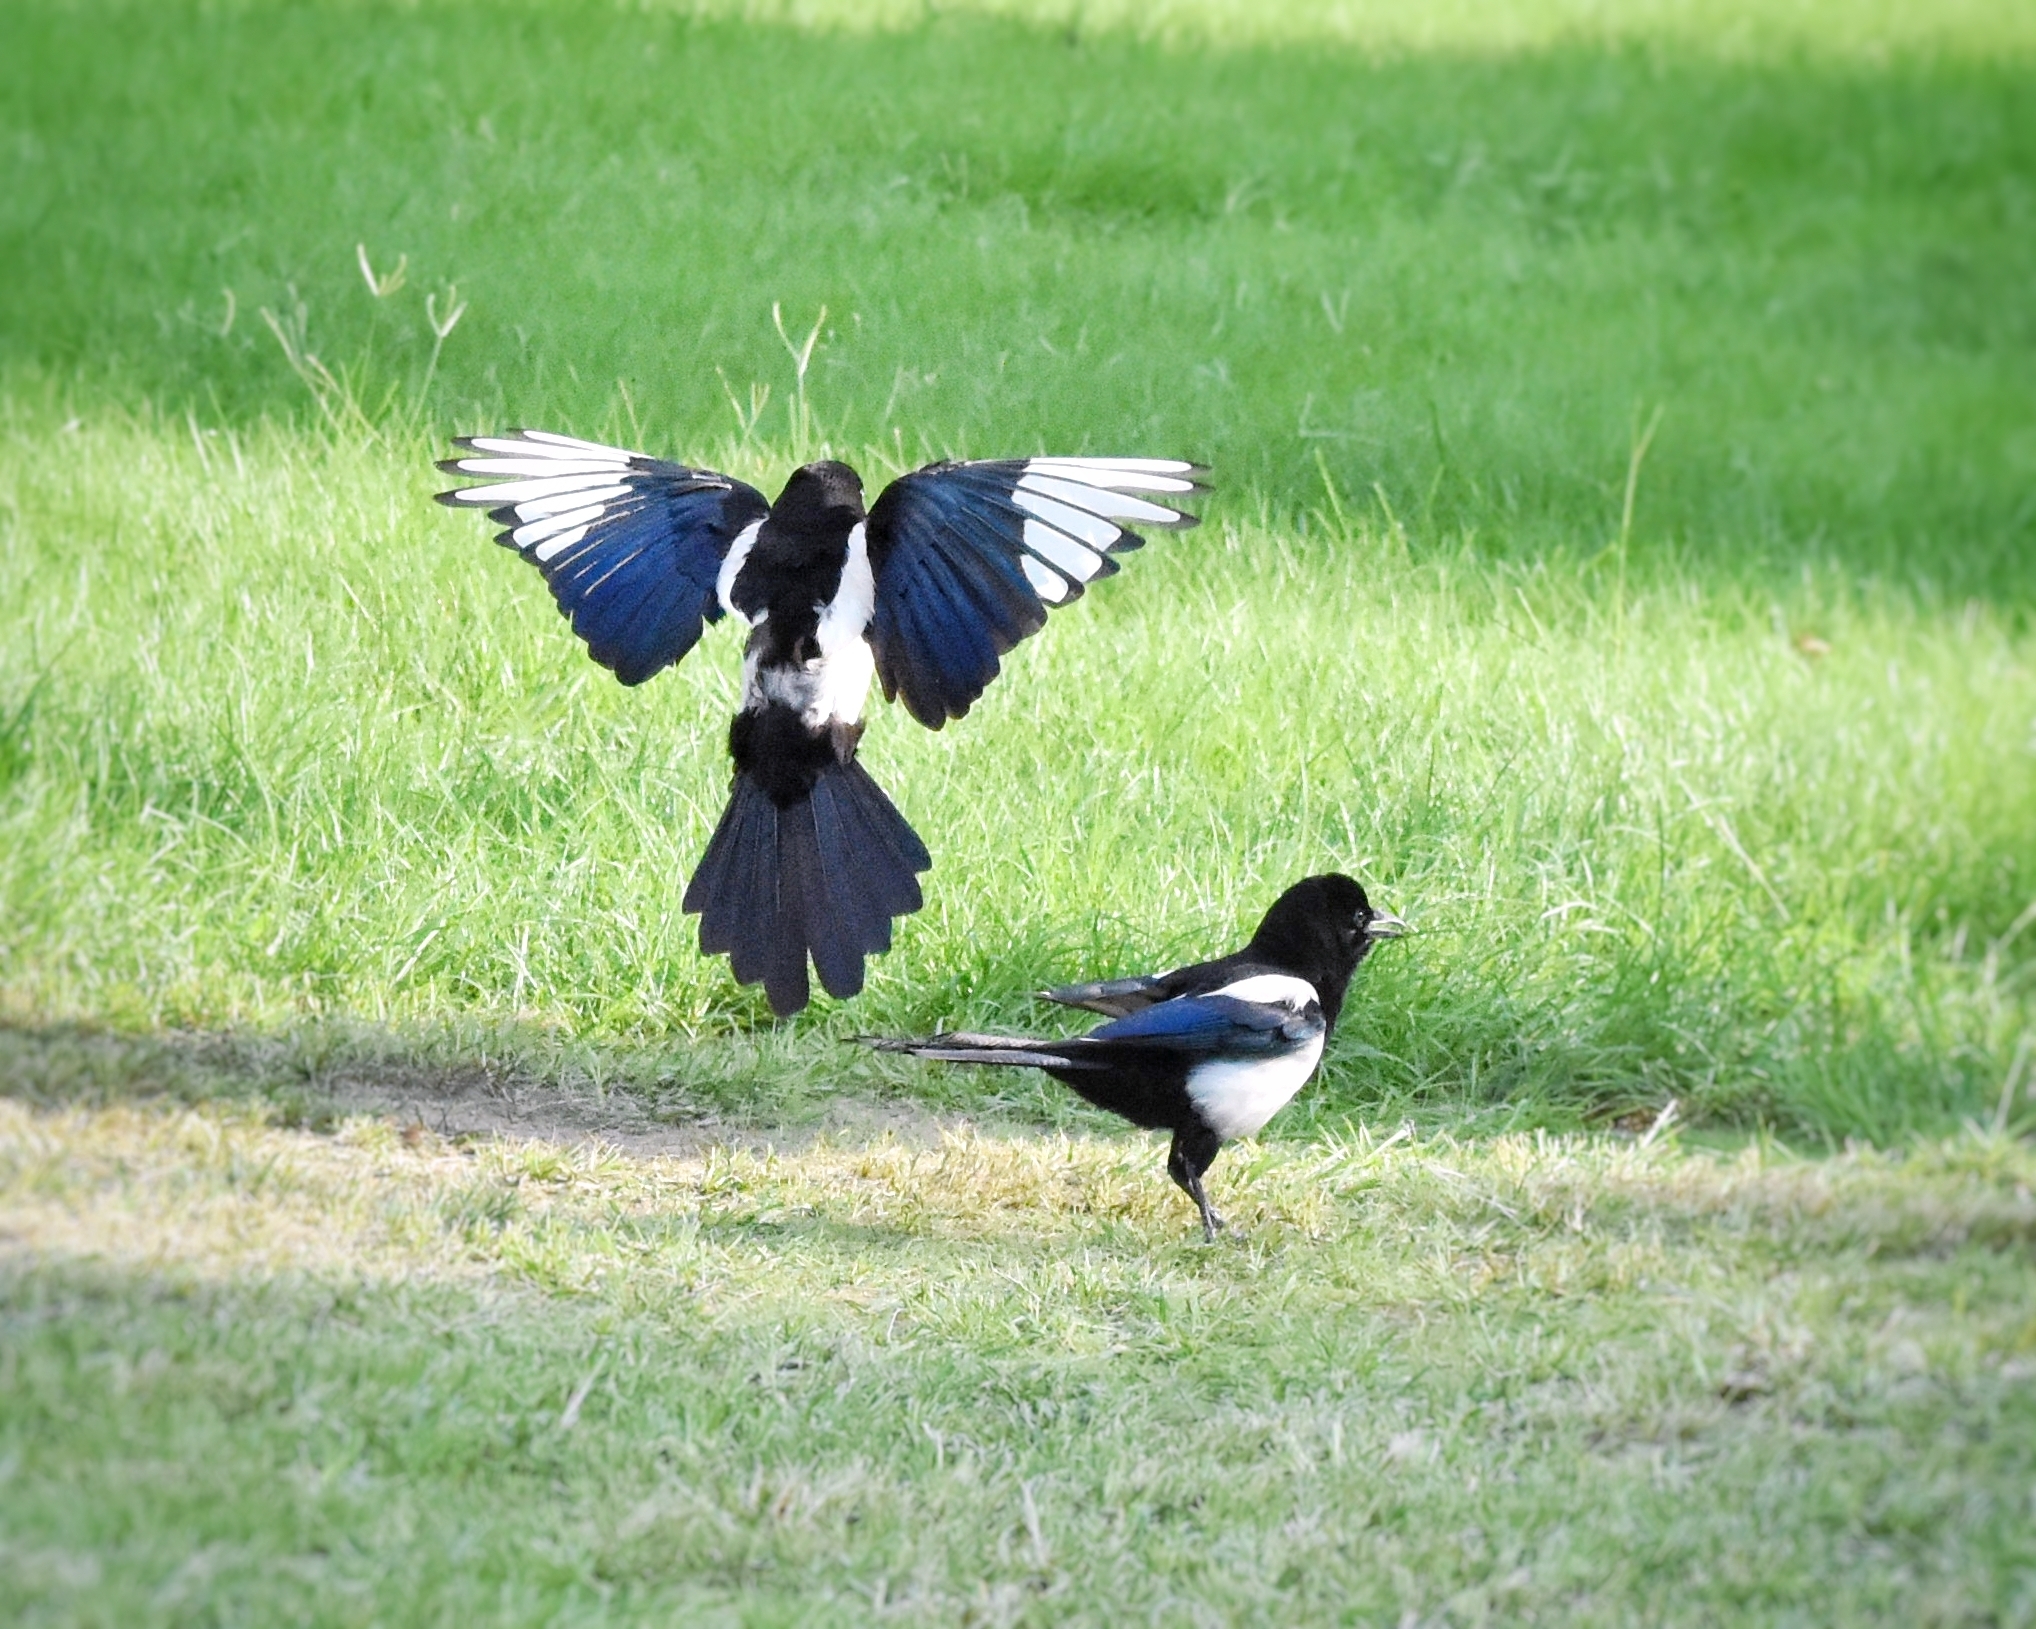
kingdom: Animalia
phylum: Chordata
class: Aves
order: Passeriformes
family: Corvidae
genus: Pica
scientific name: Pica serica
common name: Oriental magpie
